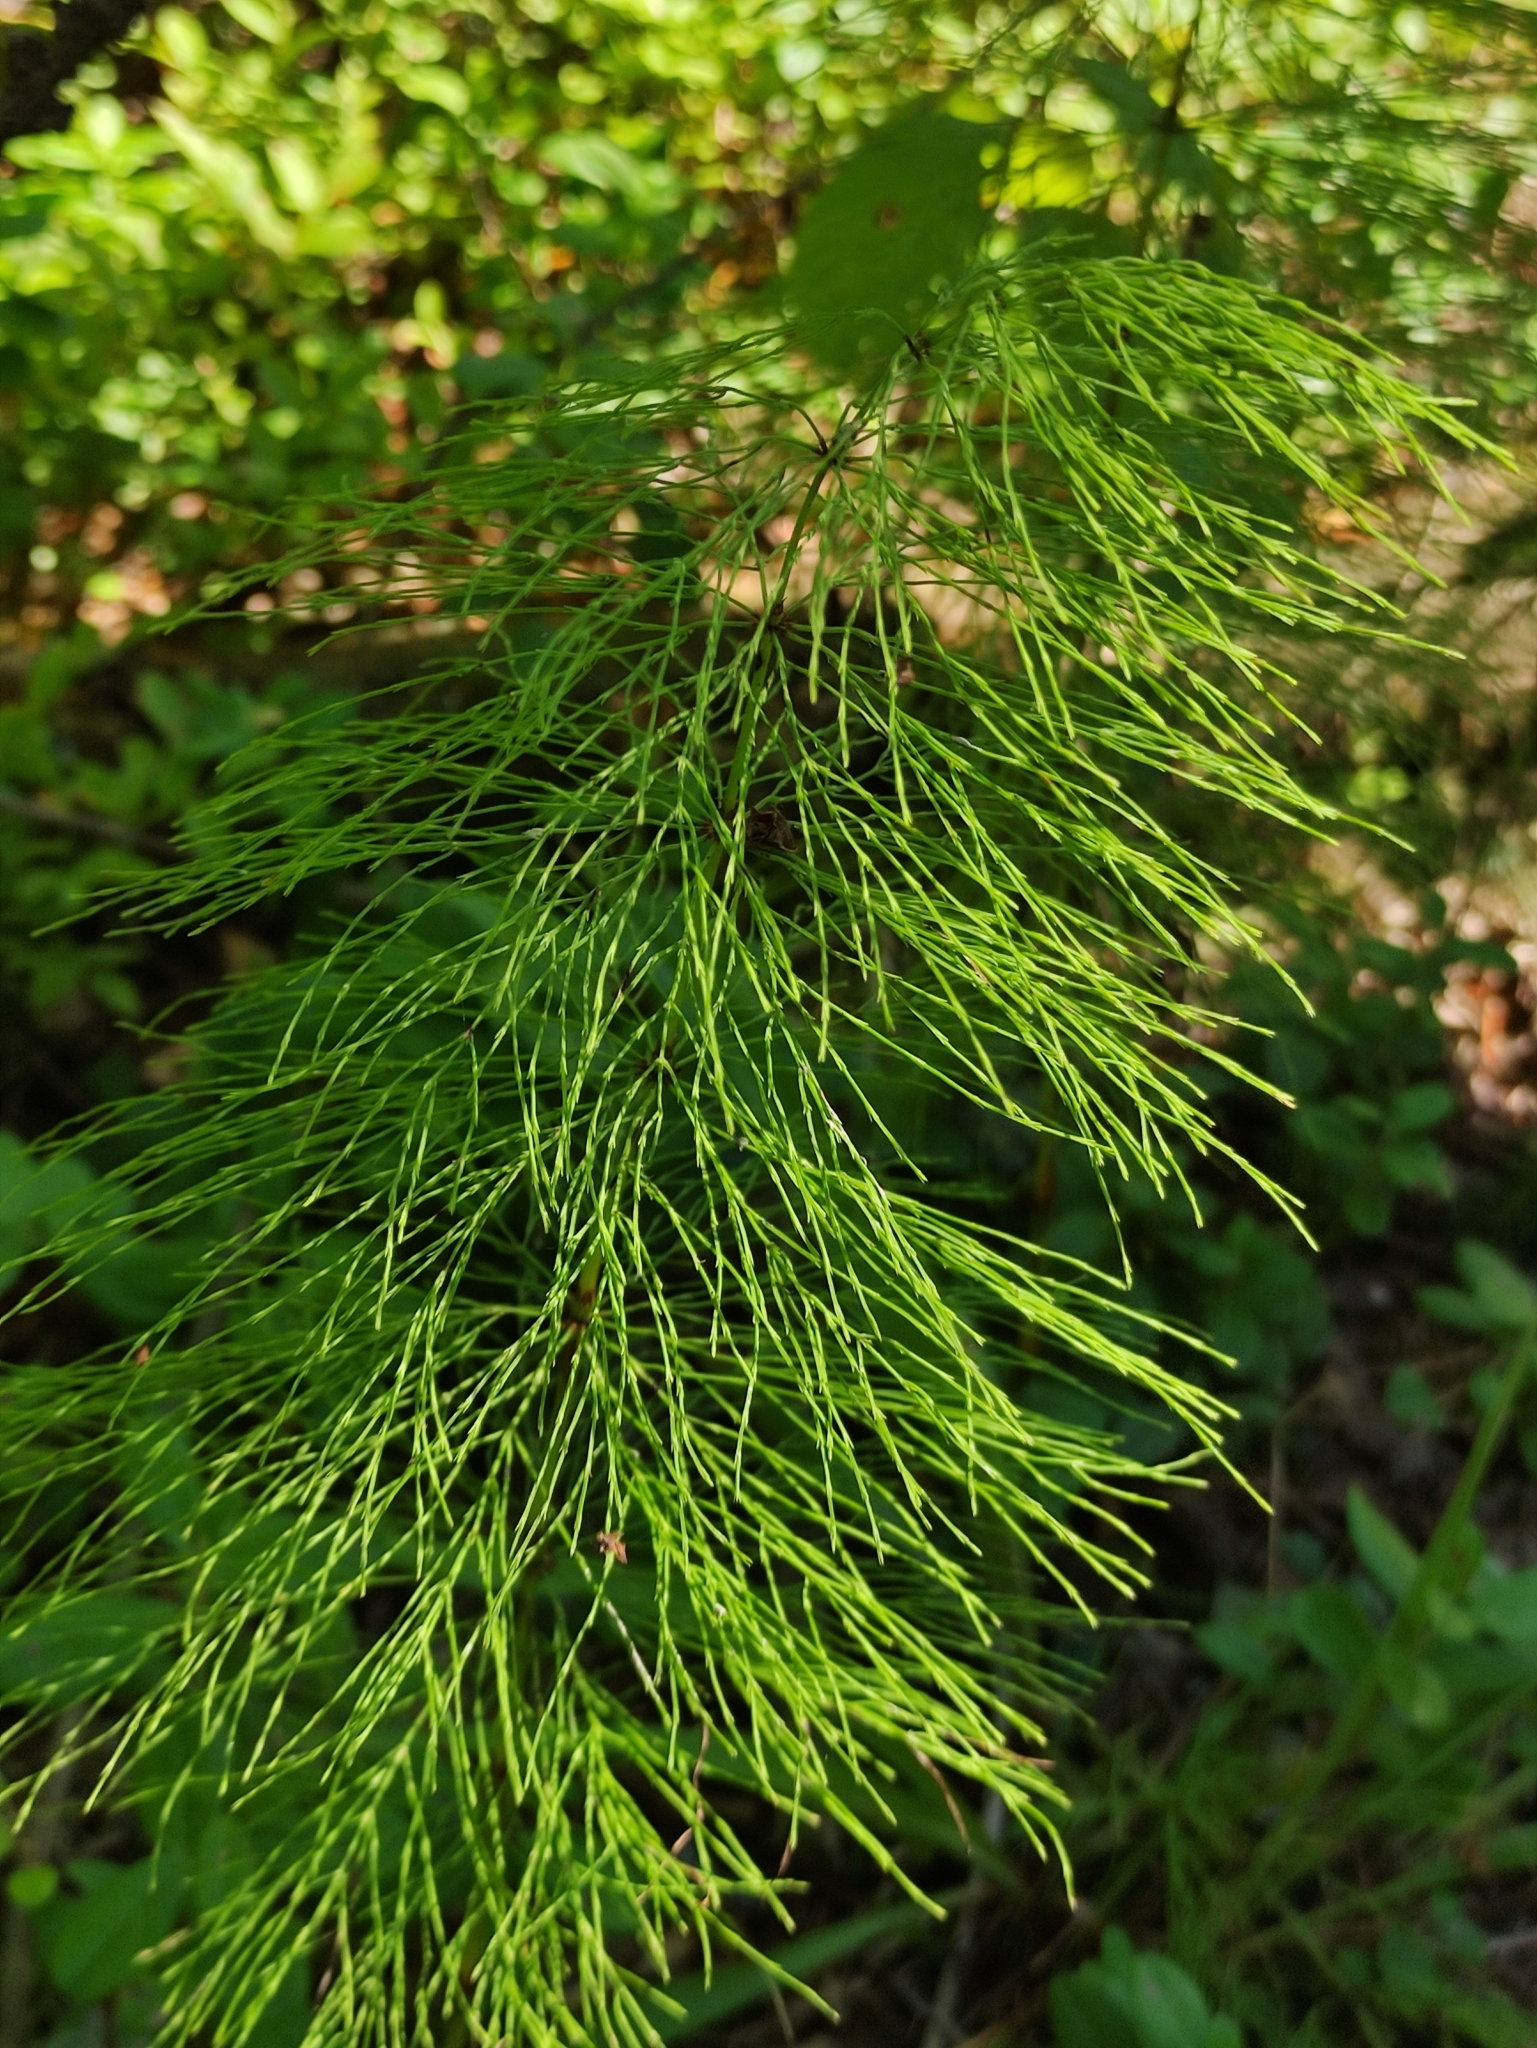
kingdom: Plantae
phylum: Tracheophyta
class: Polypodiopsida
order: Equisetales
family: Equisetaceae
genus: Equisetum
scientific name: Equisetum sylvaticum
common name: Wood horsetail
